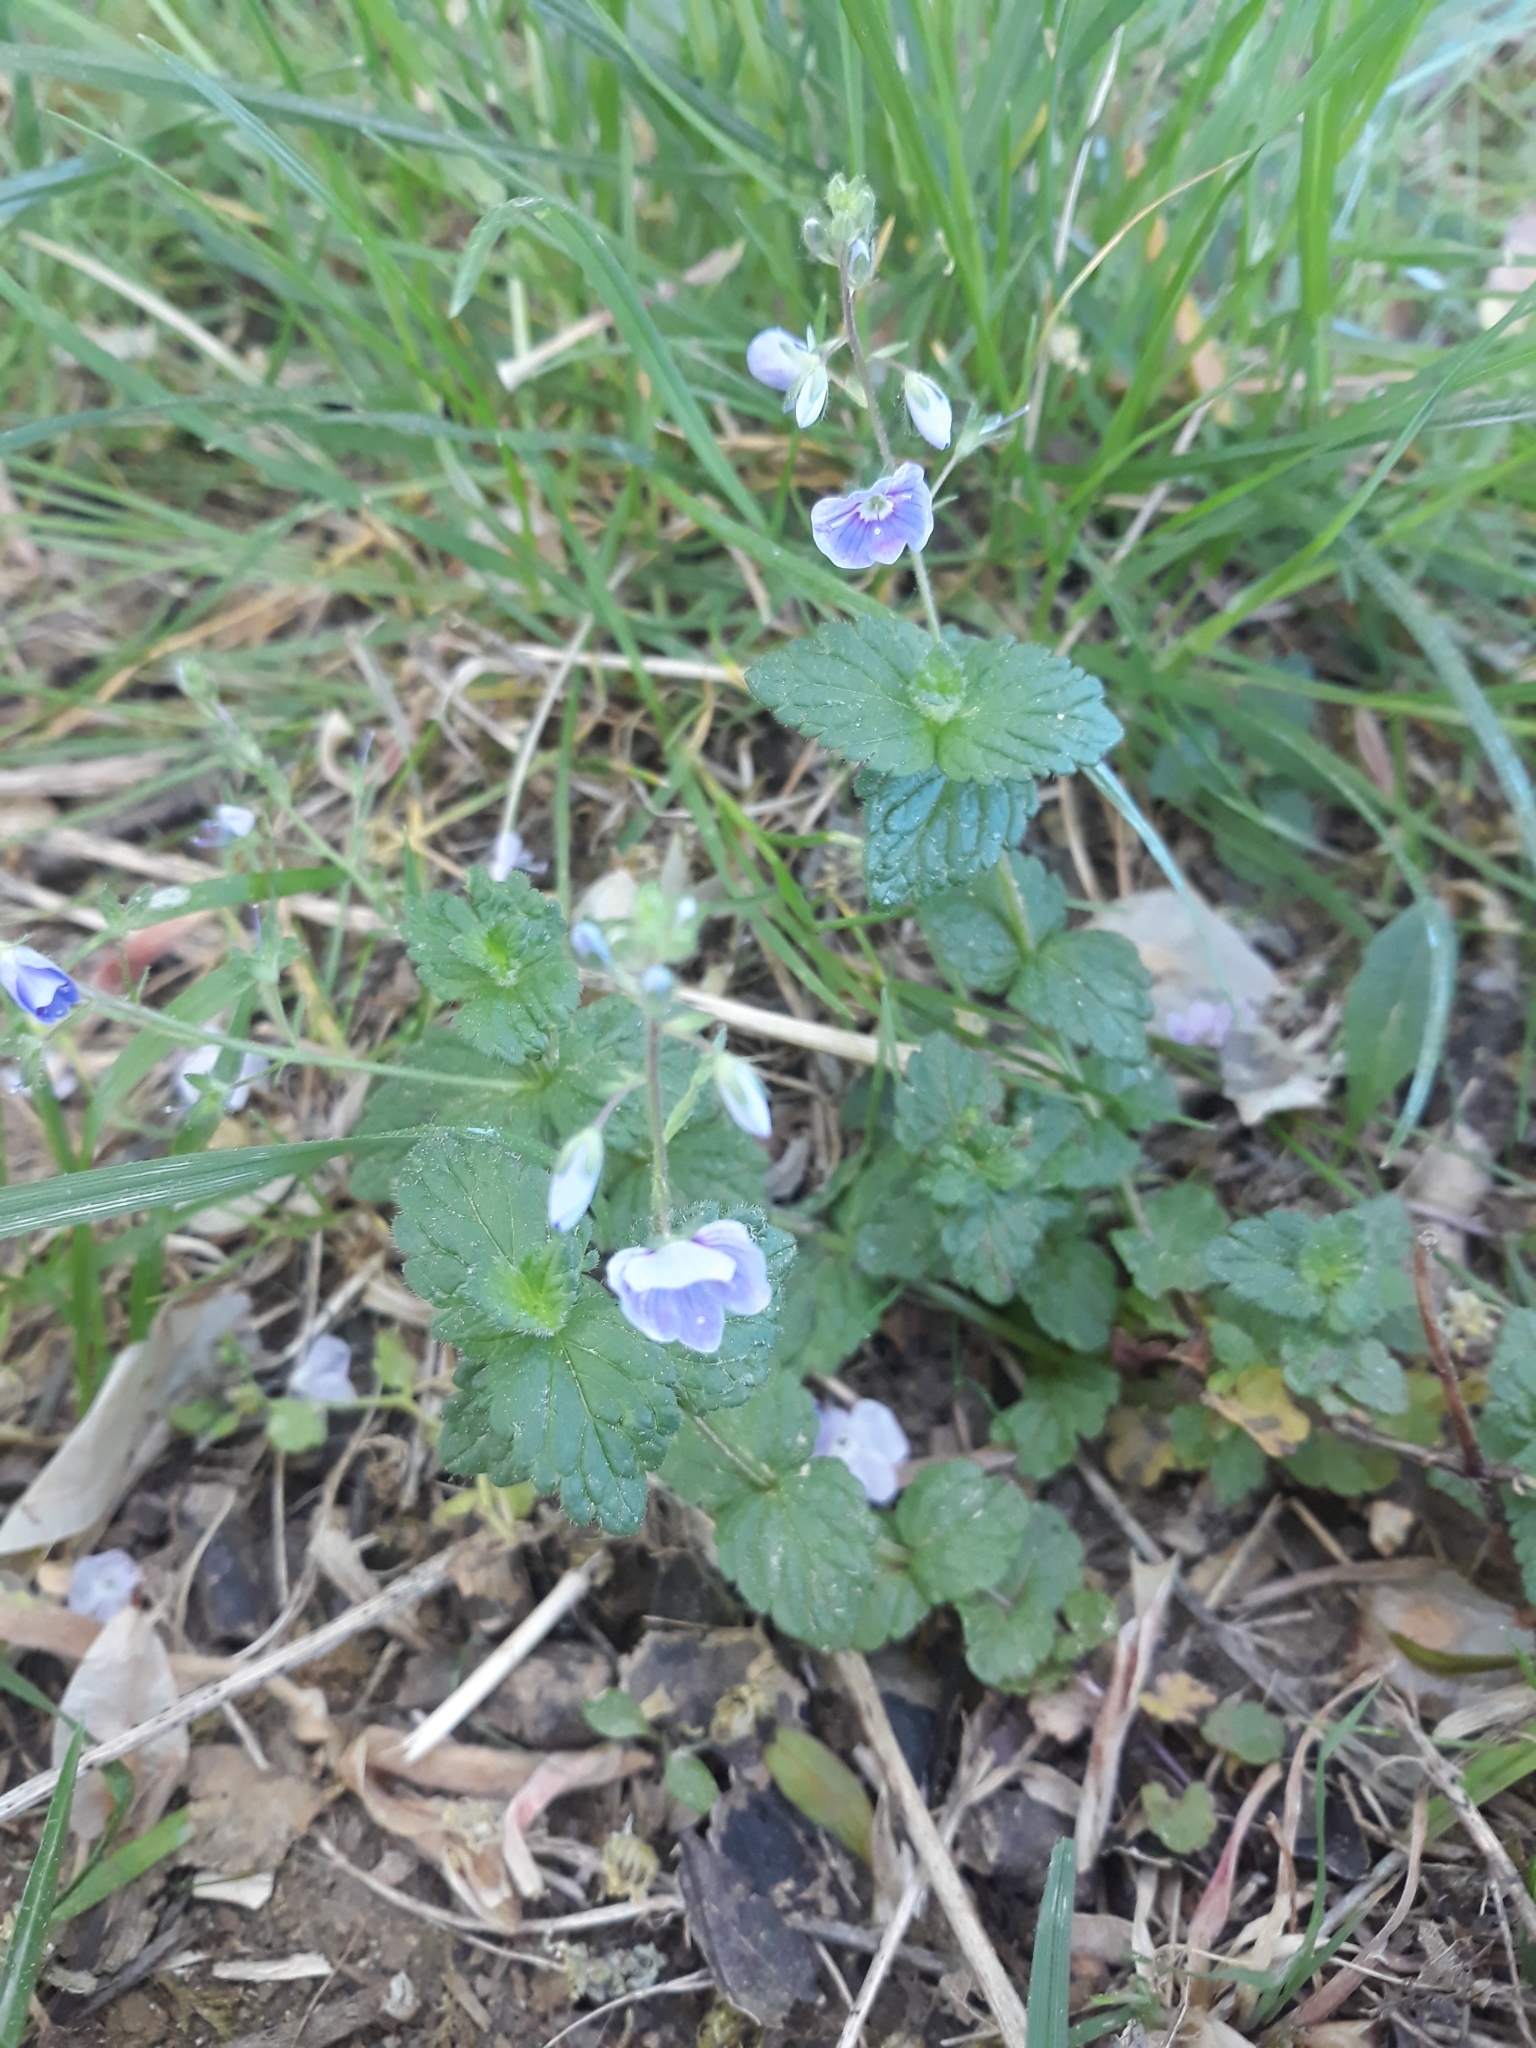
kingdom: Plantae
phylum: Tracheophyta
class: Magnoliopsida
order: Lamiales
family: Plantaginaceae
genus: Veronica
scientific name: Veronica chamaedrys
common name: Germander speedwell
